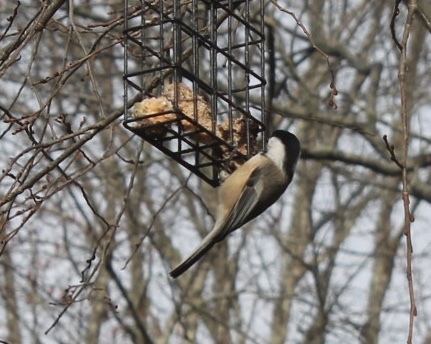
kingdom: Animalia
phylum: Chordata
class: Aves
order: Passeriformes
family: Paridae
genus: Poecile
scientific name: Poecile atricapillus
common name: Black-capped chickadee
